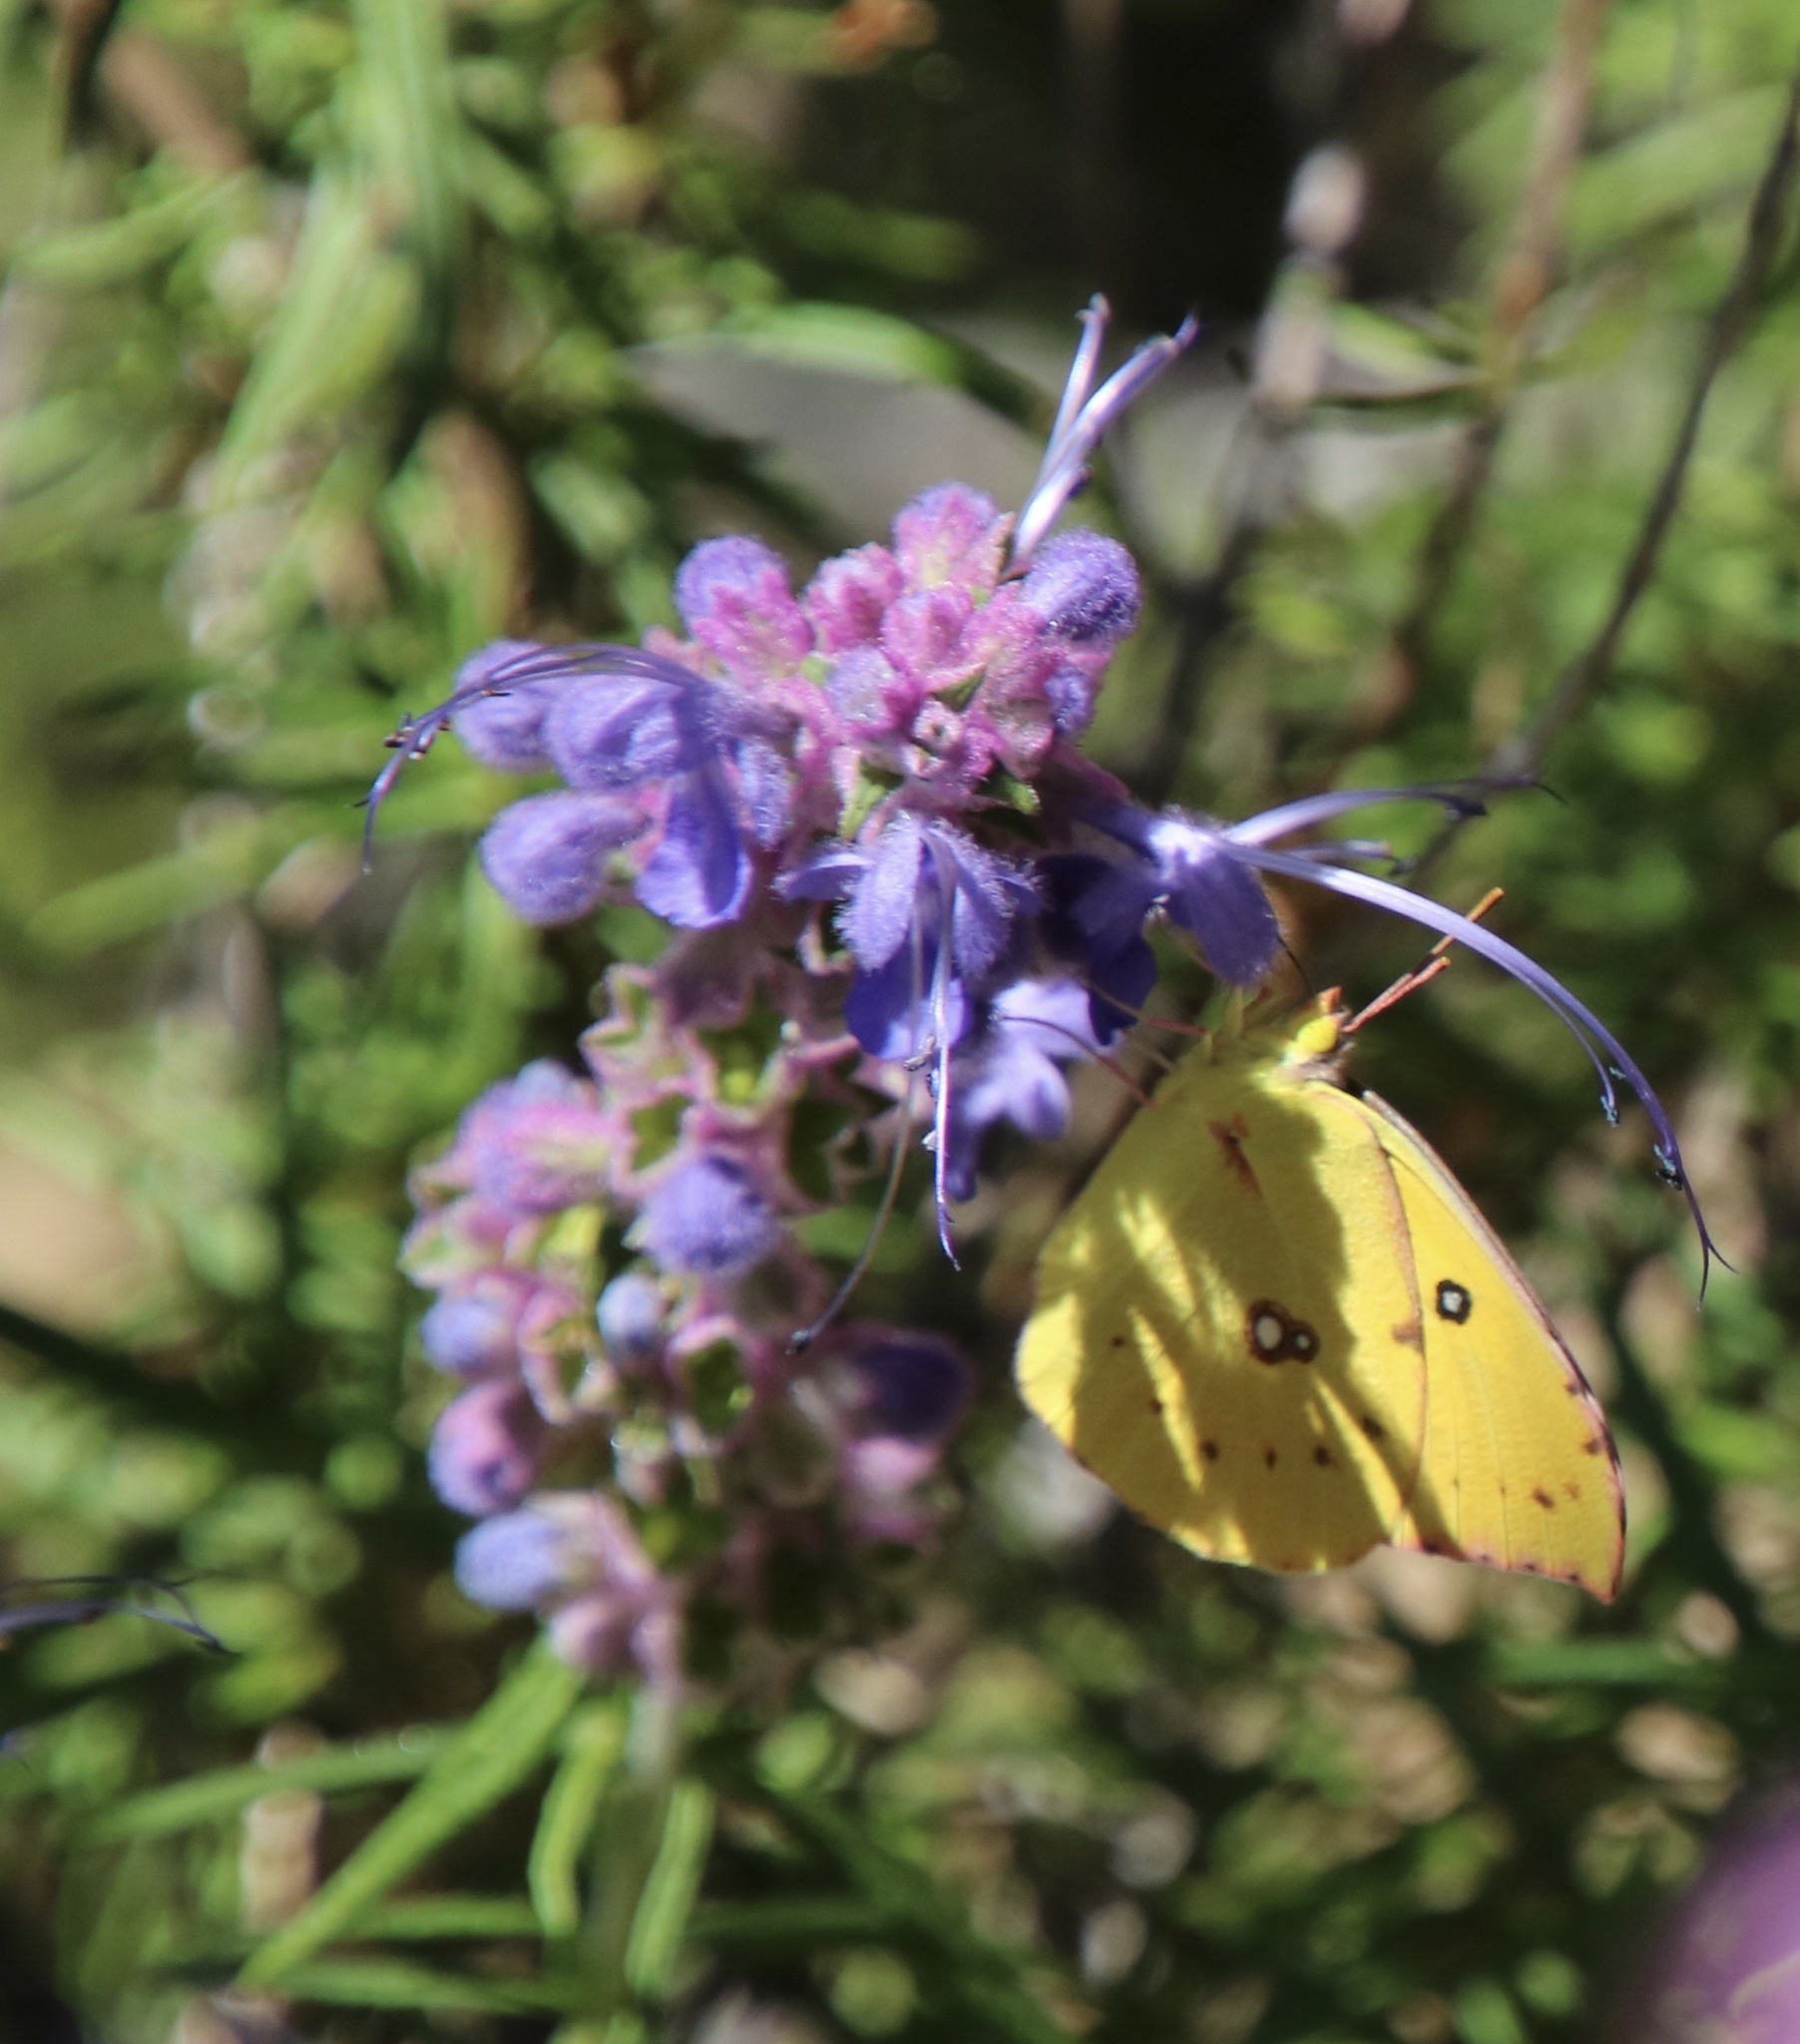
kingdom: Animalia
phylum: Arthropoda
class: Insecta
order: Lepidoptera
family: Pieridae
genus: Zerene
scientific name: Zerene eurydice
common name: California dogface
